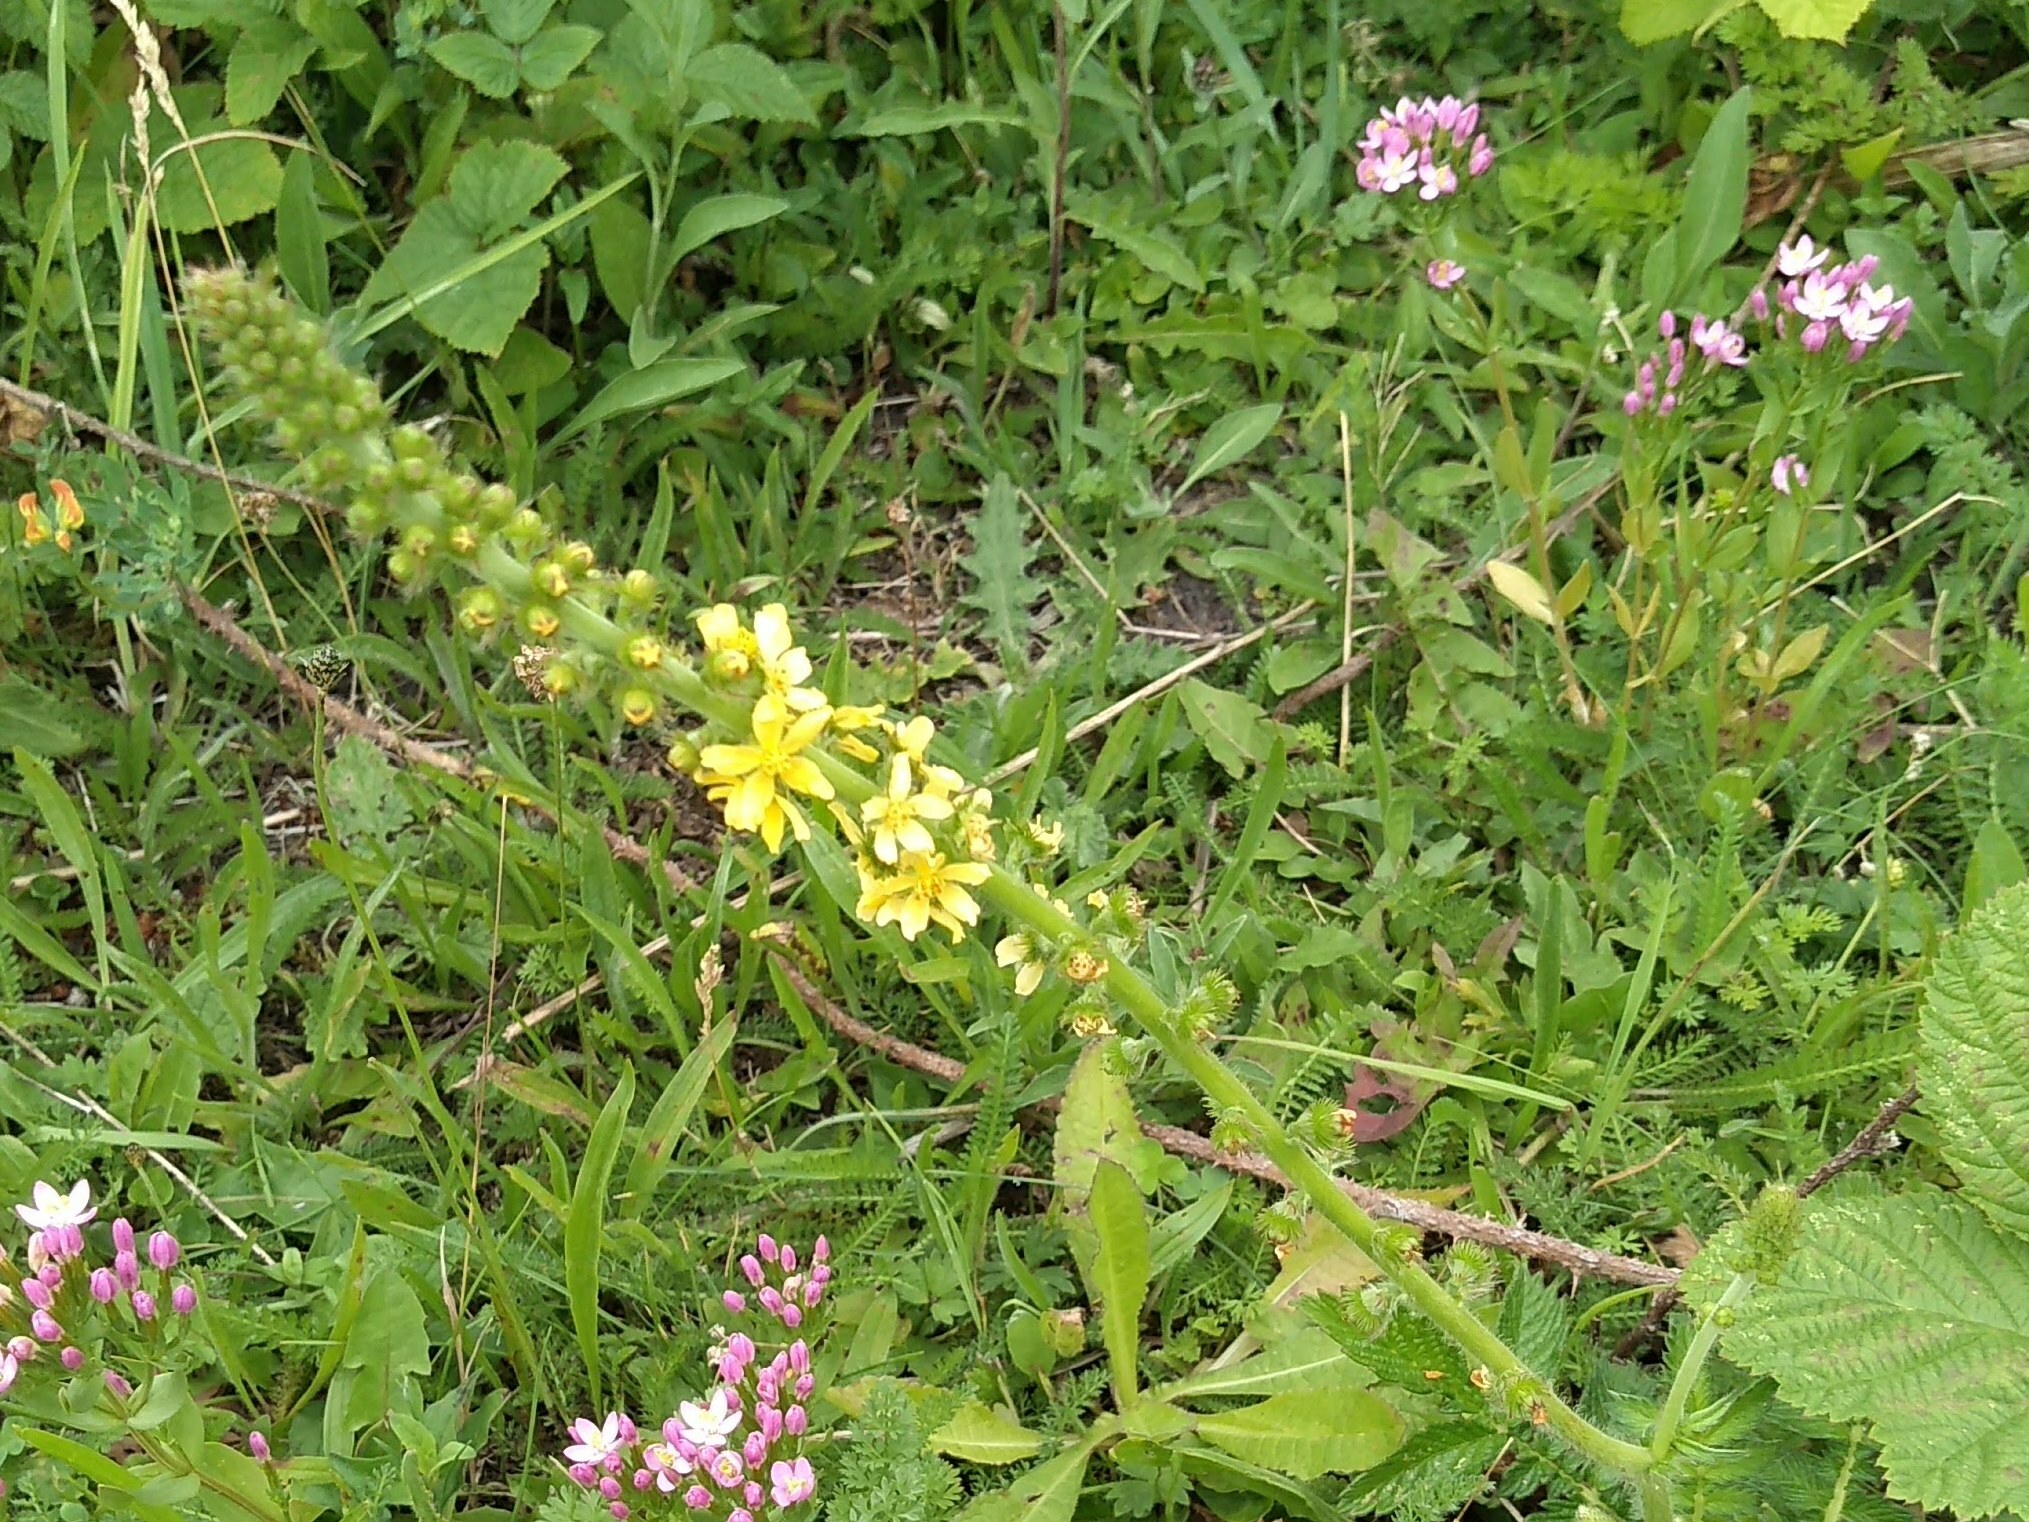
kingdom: Plantae
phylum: Tracheophyta
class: Magnoliopsida
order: Rosales
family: Rosaceae
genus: Agrimonia
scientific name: Agrimonia eupatoria
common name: Agrimony
